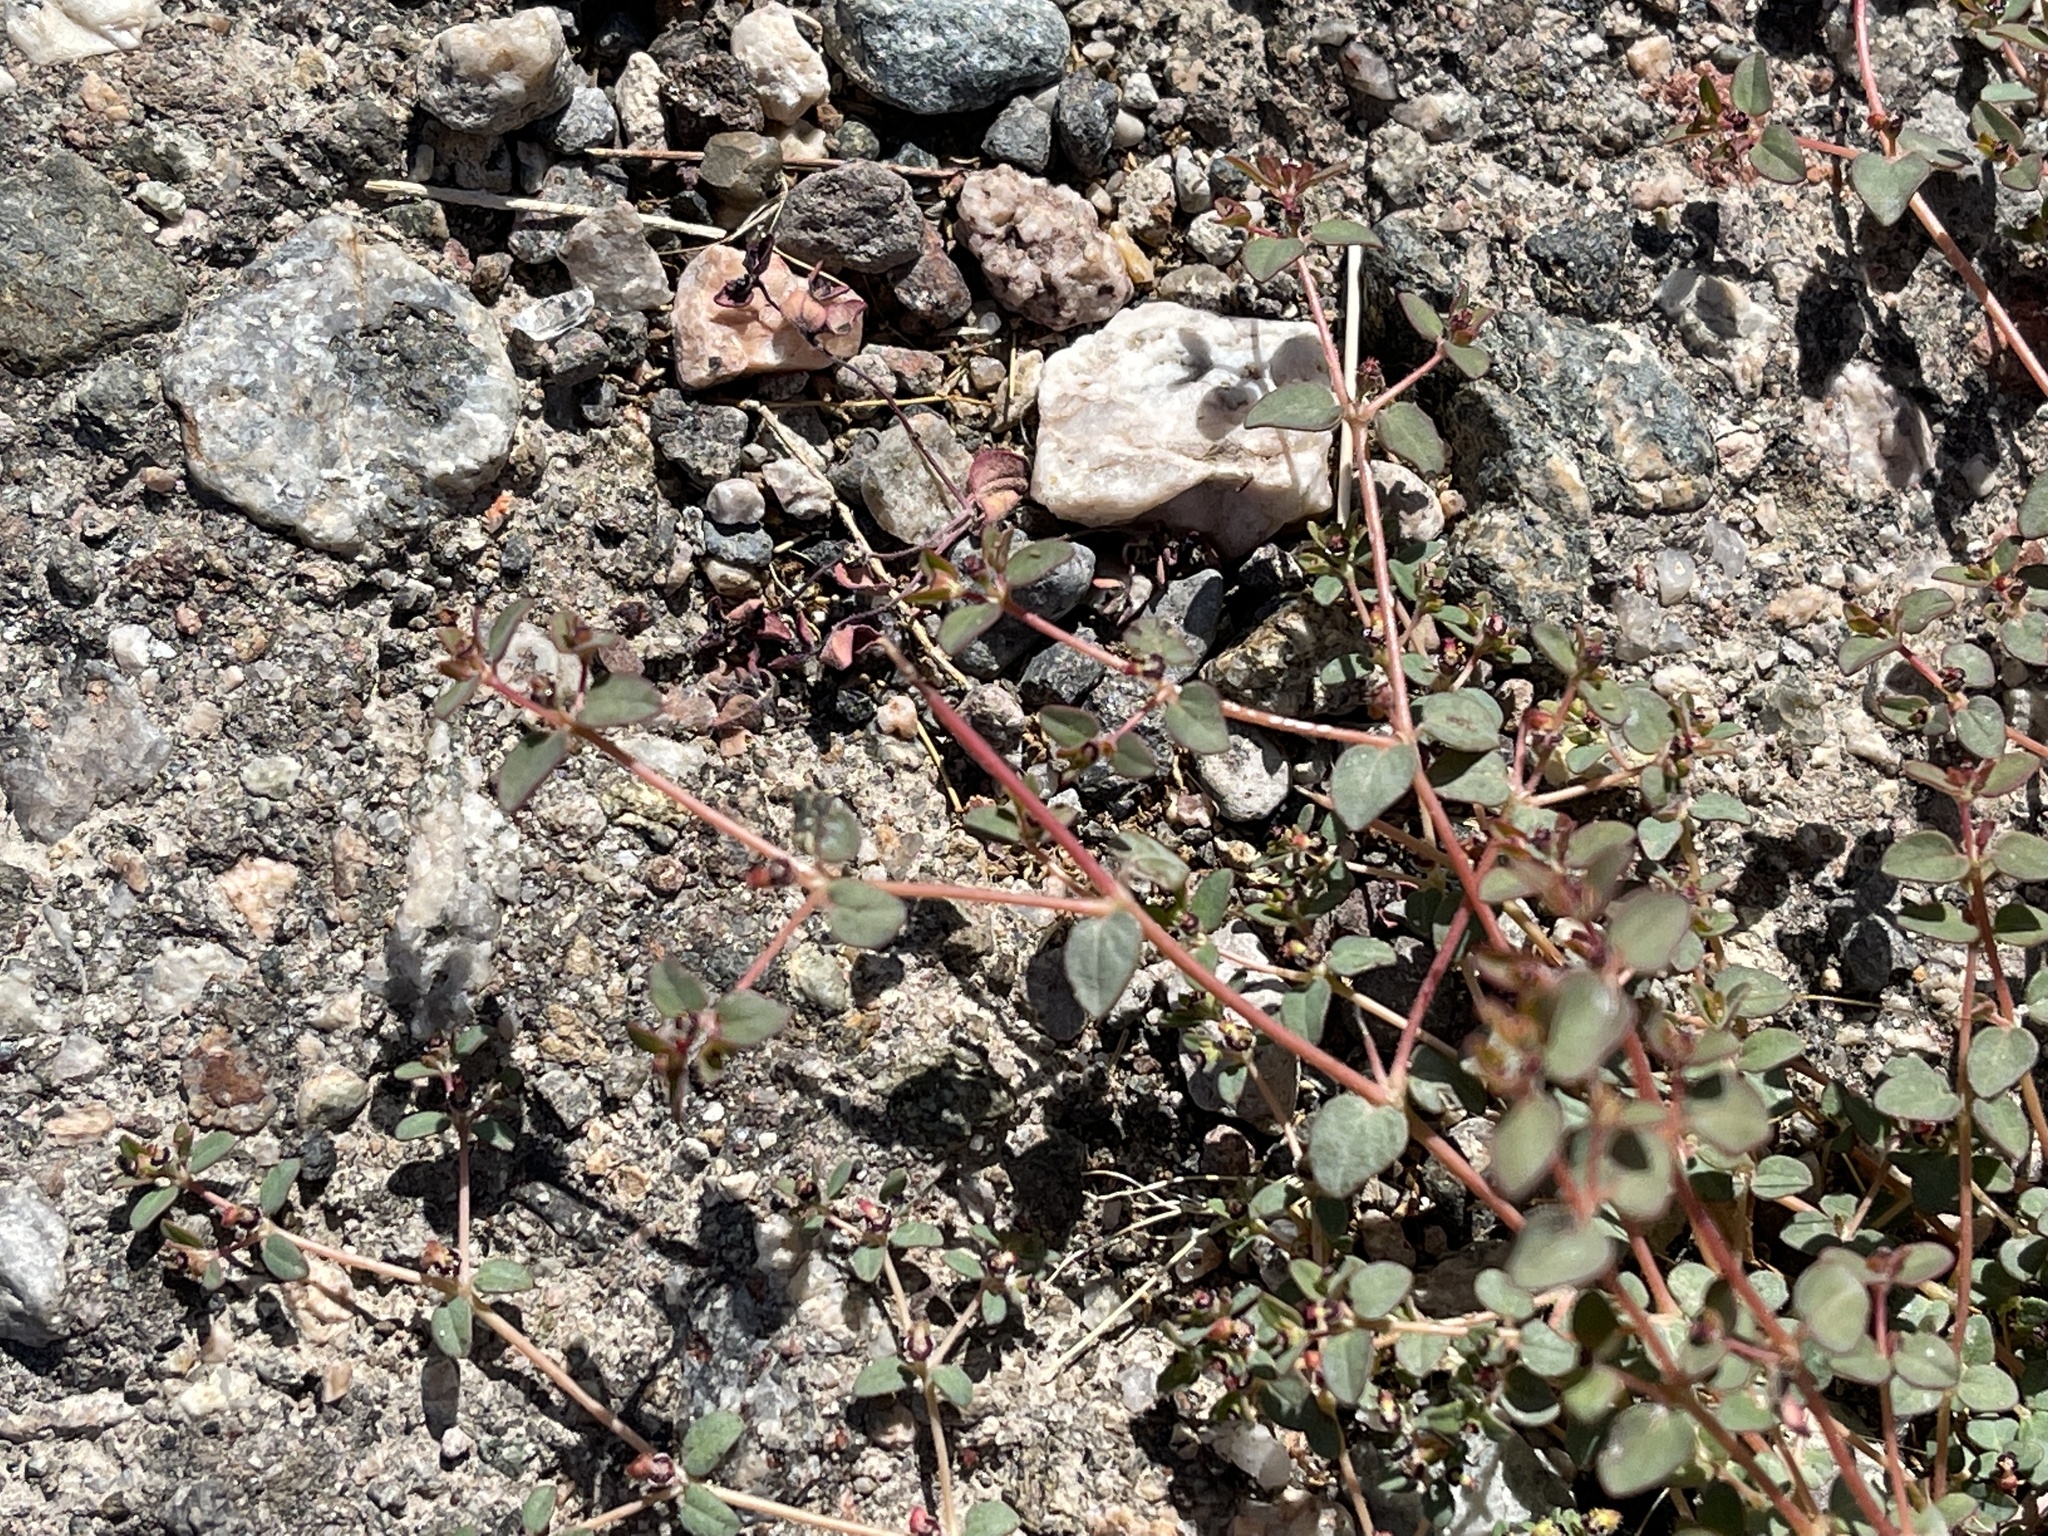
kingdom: Plantae
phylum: Tracheophyta
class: Magnoliopsida
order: Malpighiales
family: Euphorbiaceae
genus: Euphorbia
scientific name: Euphorbia polycarpa
